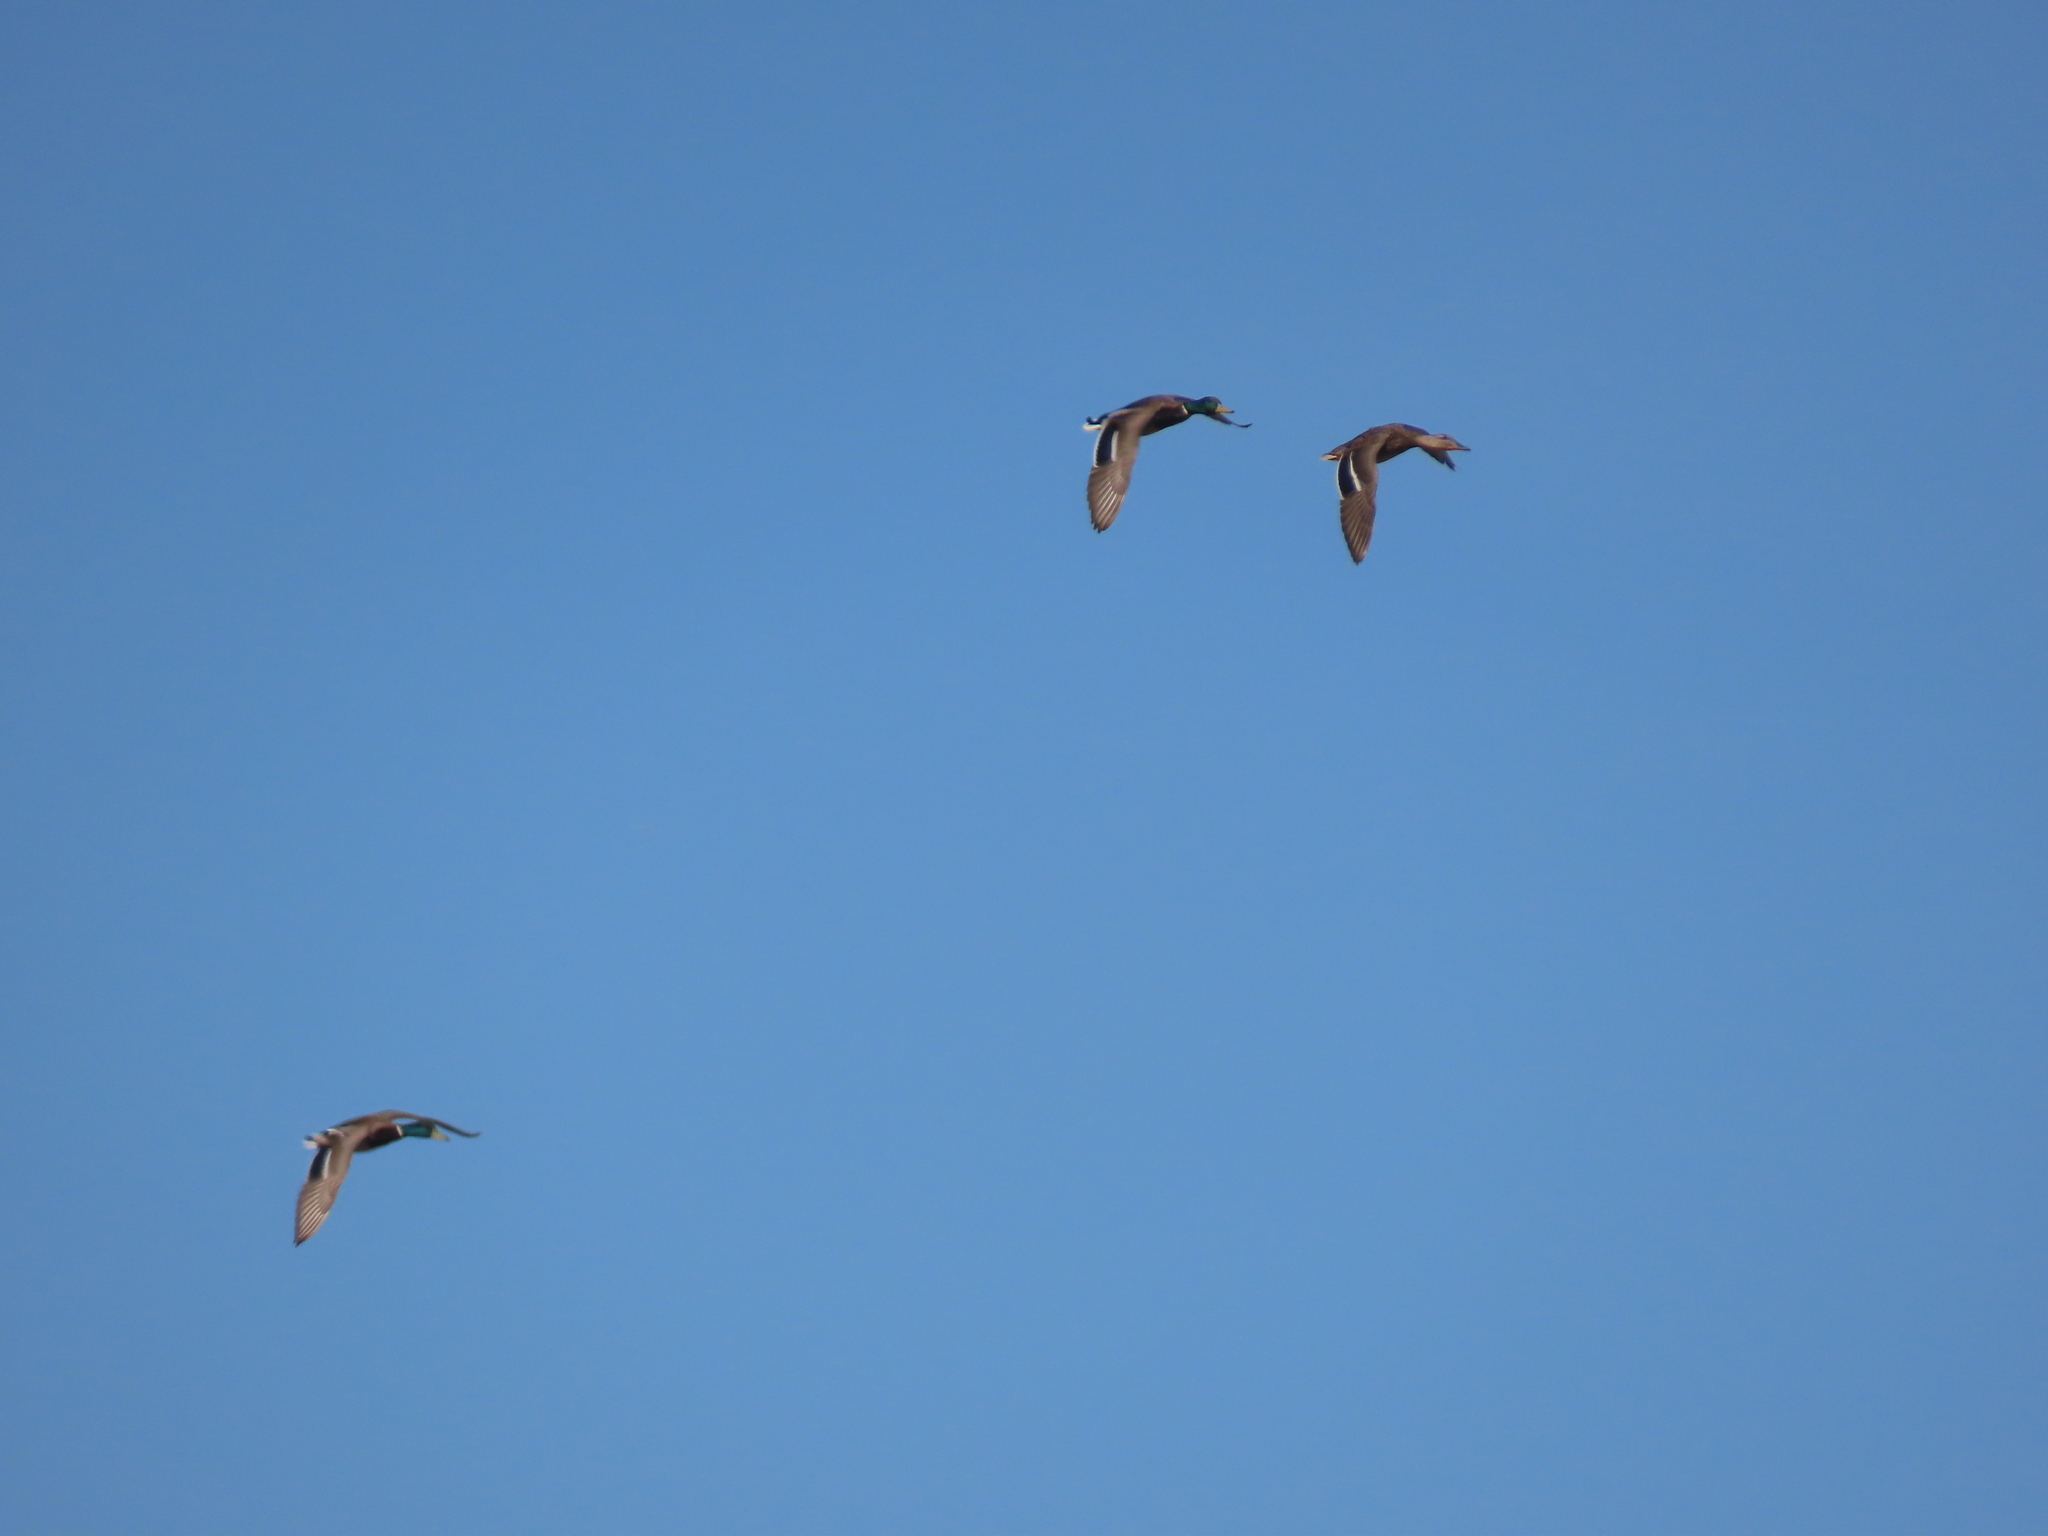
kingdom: Animalia
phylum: Chordata
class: Aves
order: Anseriformes
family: Anatidae
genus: Anas
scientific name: Anas platyrhynchos
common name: Mallard
